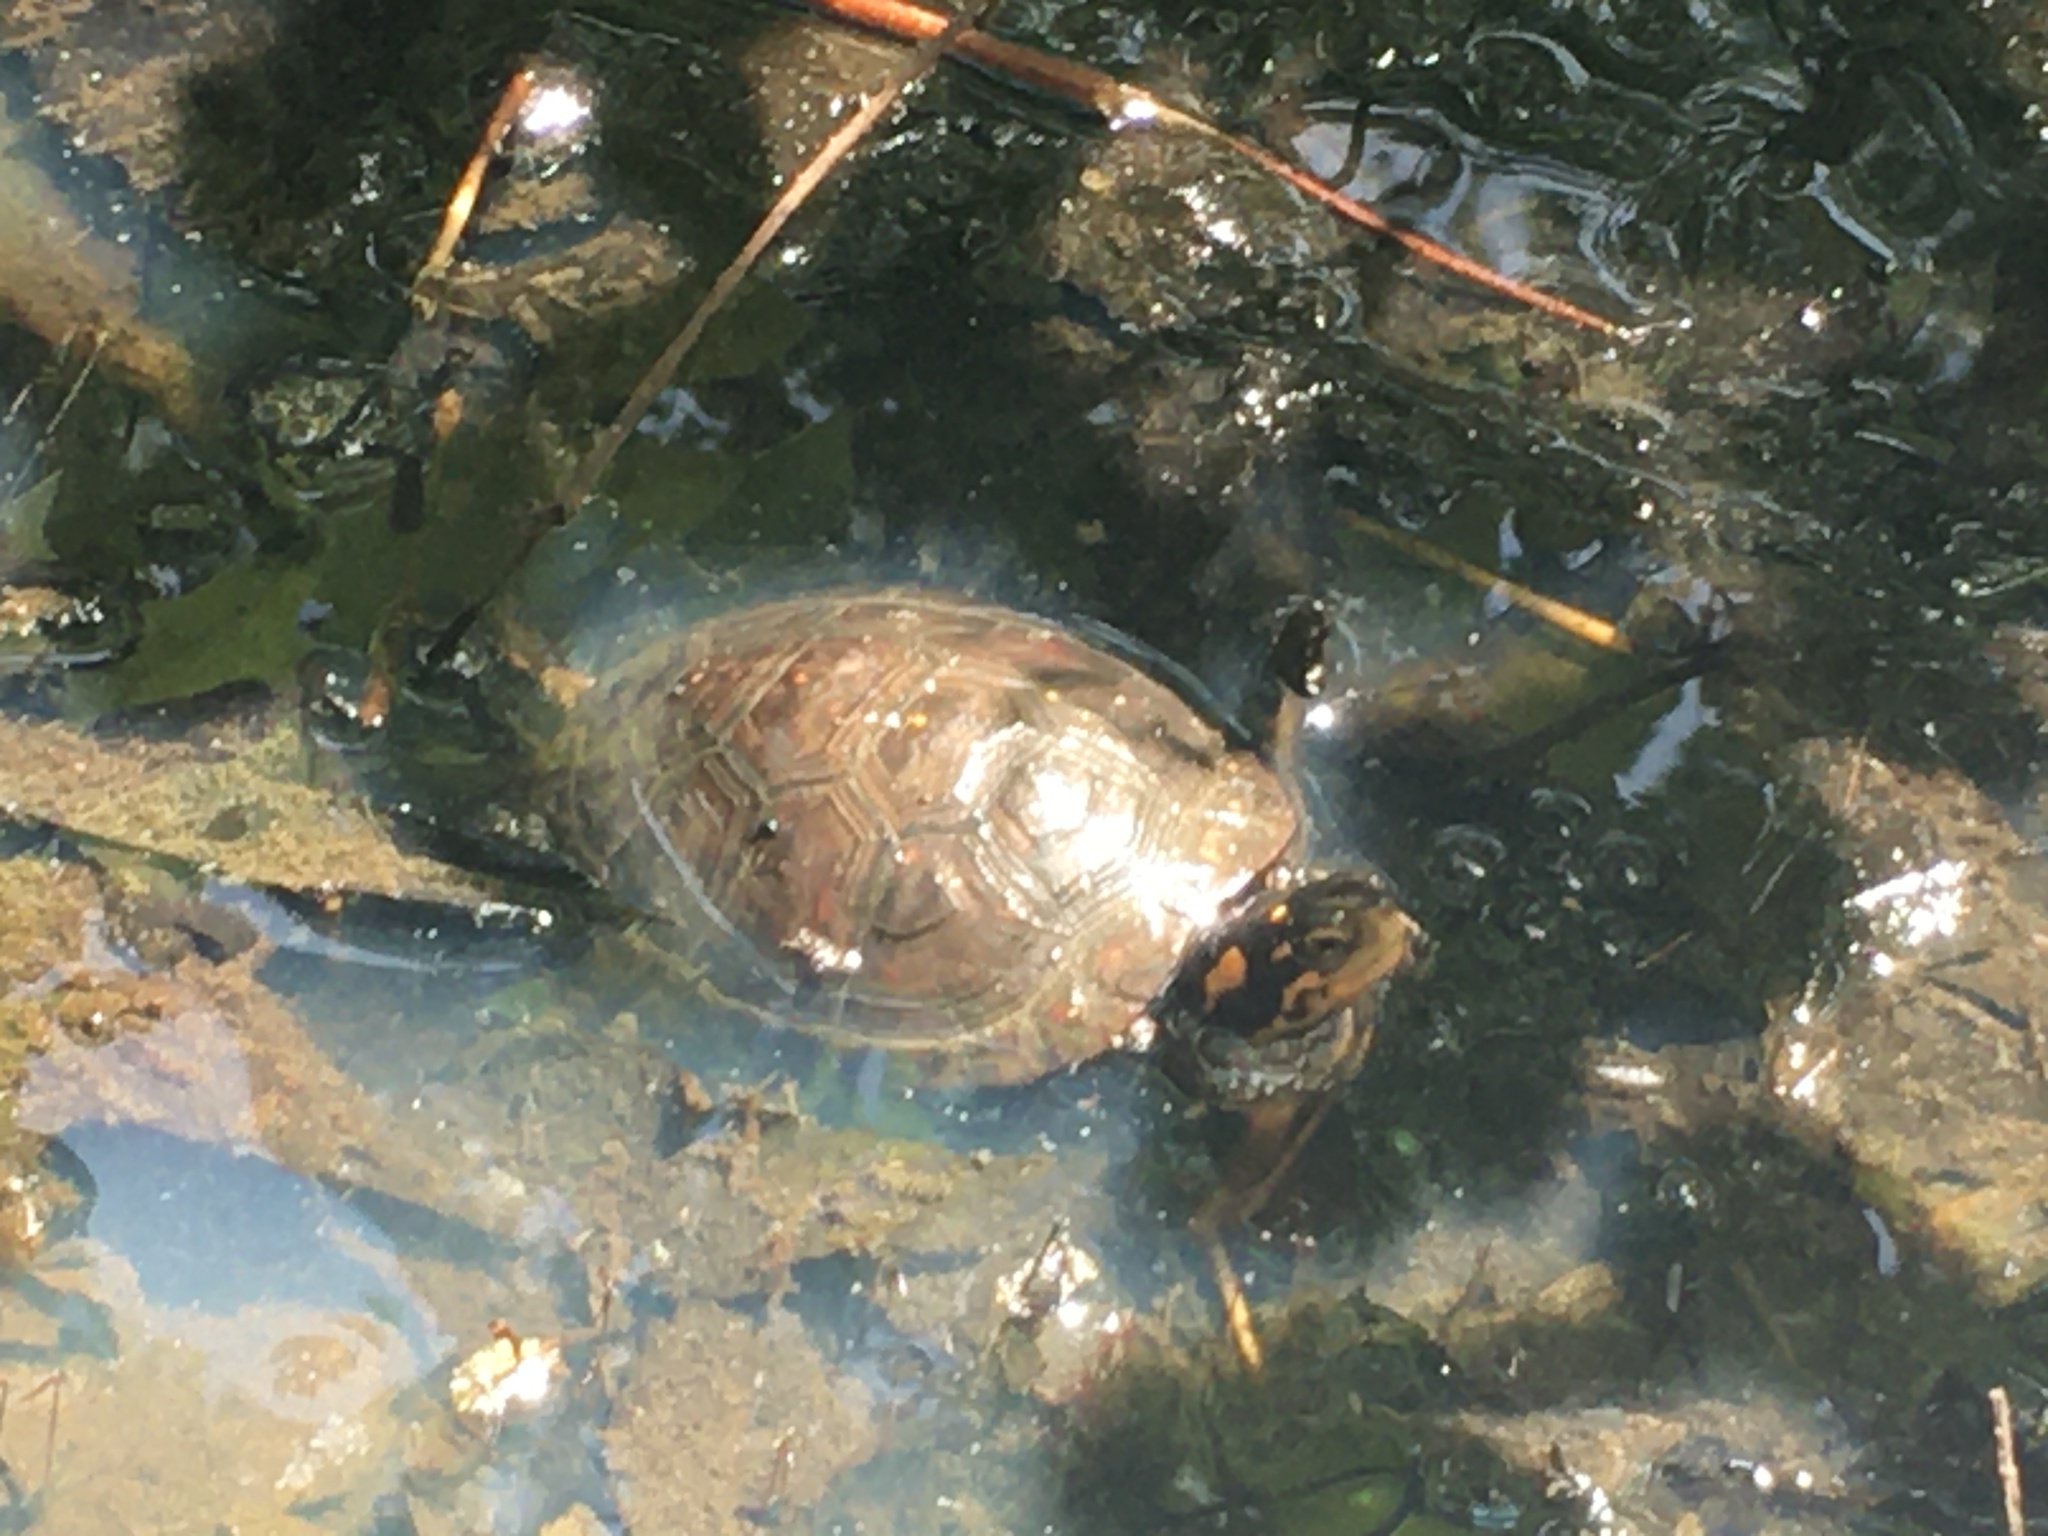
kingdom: Animalia
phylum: Chordata
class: Testudines
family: Emydidae
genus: Clemmys
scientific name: Clemmys guttata
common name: Spotted turtle
